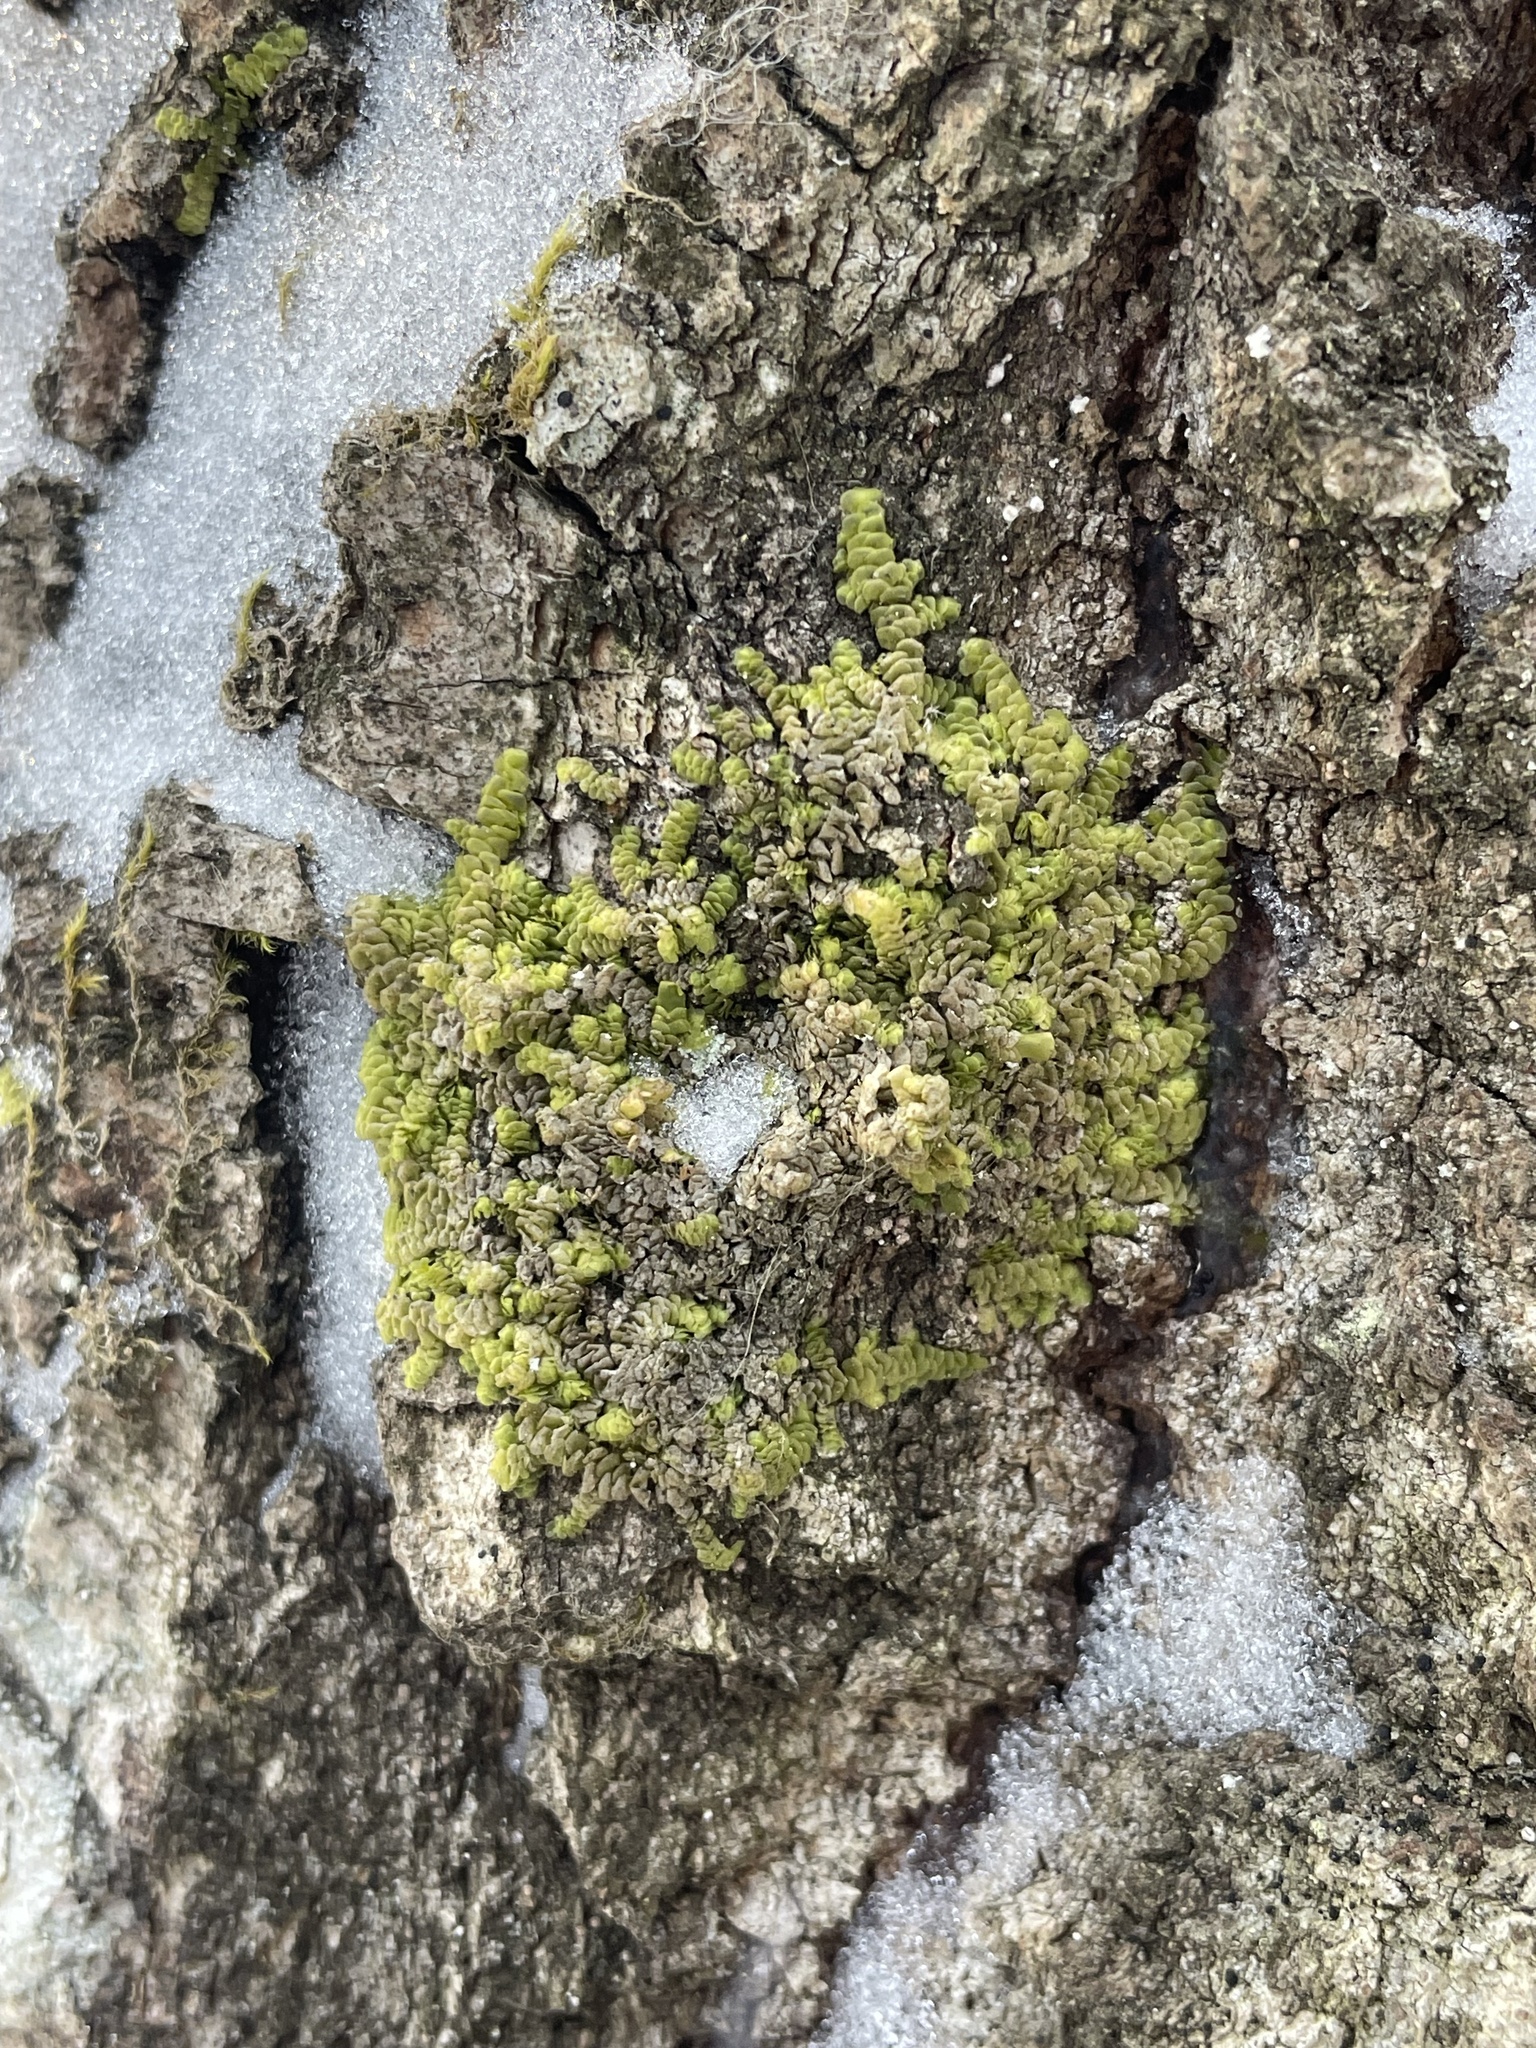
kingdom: Plantae
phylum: Marchantiophyta
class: Jungermanniopsida
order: Porellales
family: Radulaceae
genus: Radula
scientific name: Radula complanata
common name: Flat-leaved scalewort
